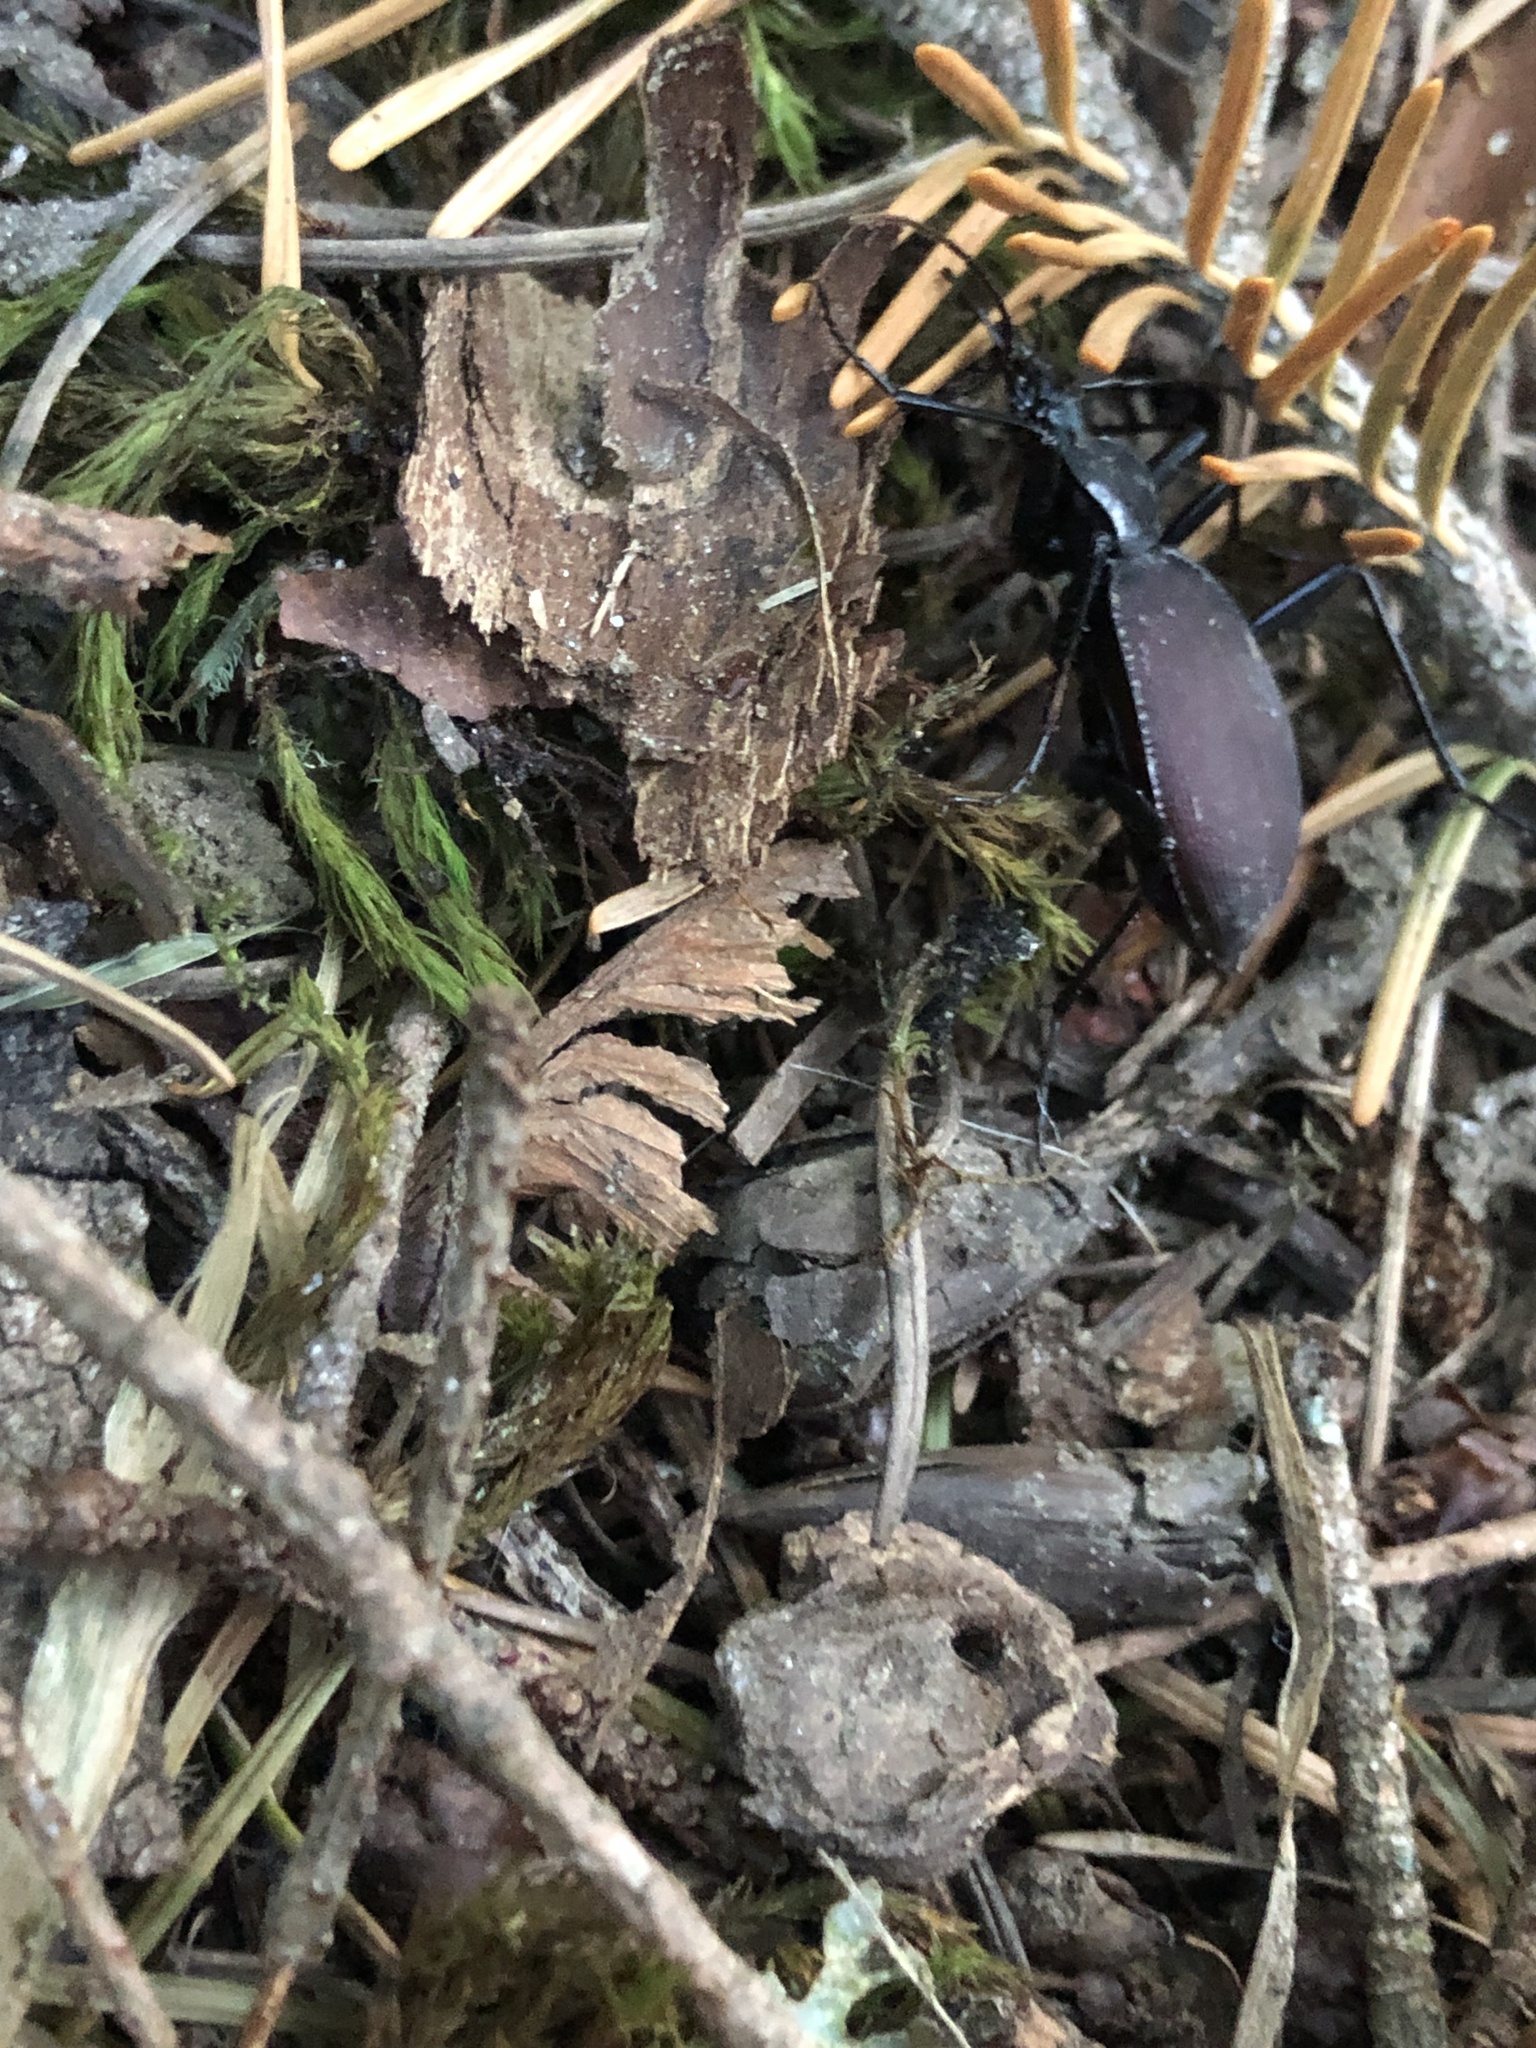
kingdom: Animalia
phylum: Arthropoda
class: Insecta
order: Coleoptera
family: Carabidae
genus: Scaphinotus
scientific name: Scaphinotus angusticollis
